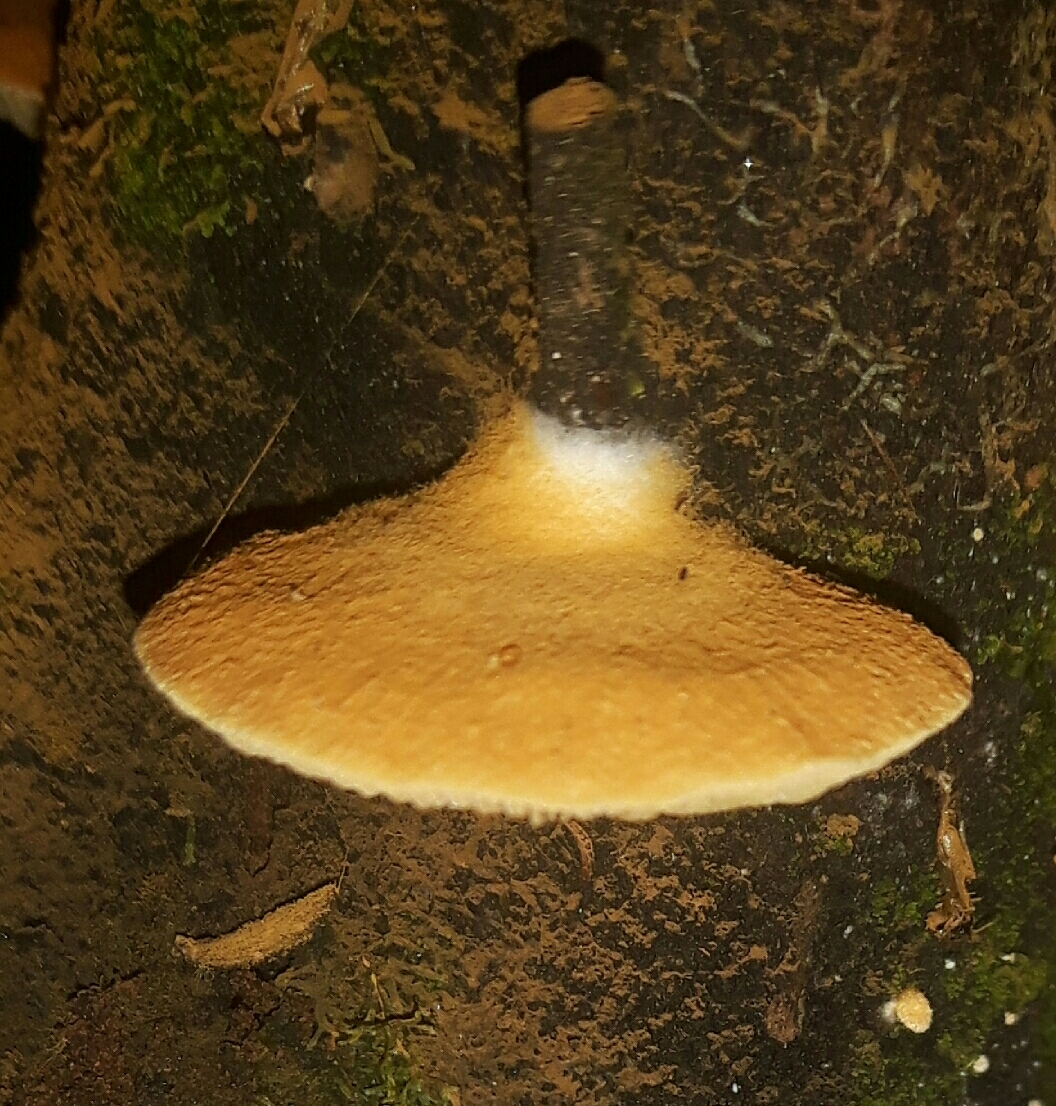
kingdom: Fungi
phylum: Basidiomycota
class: Agaricomycetes
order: Agaricales
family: Crepidotaceae
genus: Crepidotus
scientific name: Crepidotus praecipuus
